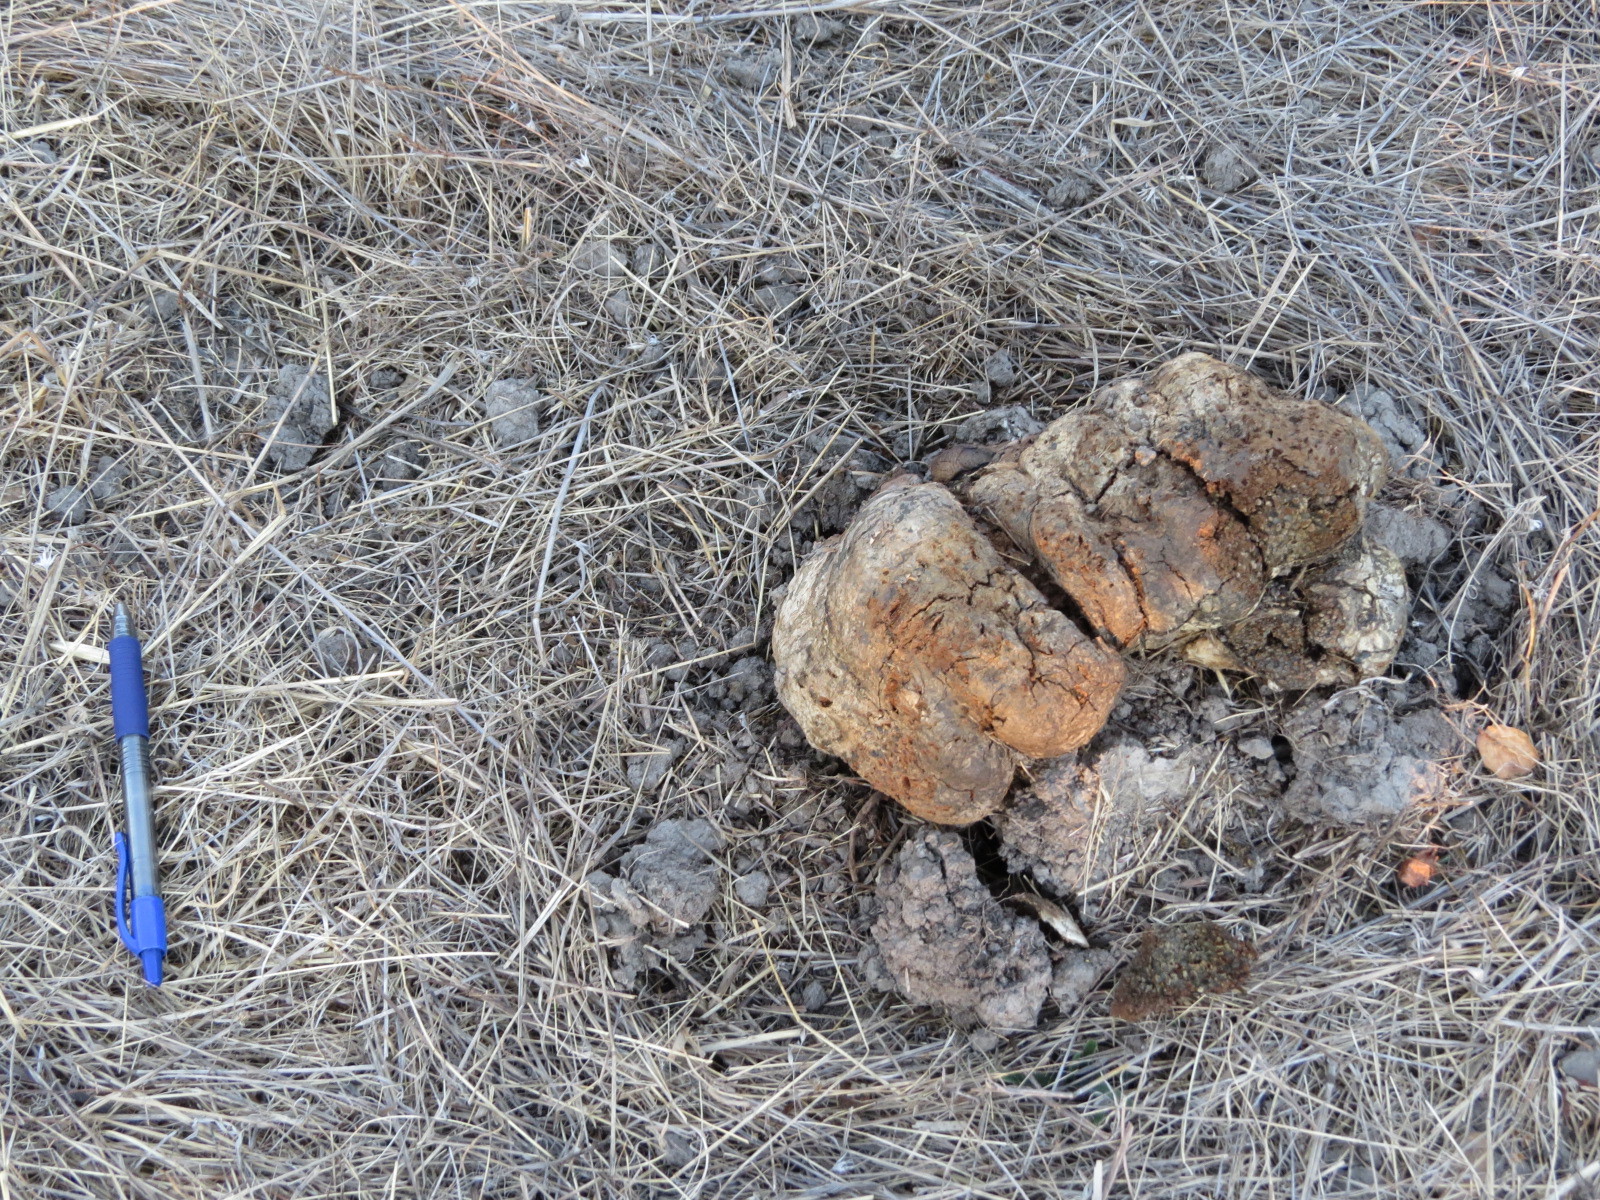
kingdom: Fungi
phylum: Basidiomycota
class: Agaricomycetes
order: Boletales
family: Sclerodermataceae
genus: Pisolithus
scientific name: Pisolithus tinctorius
